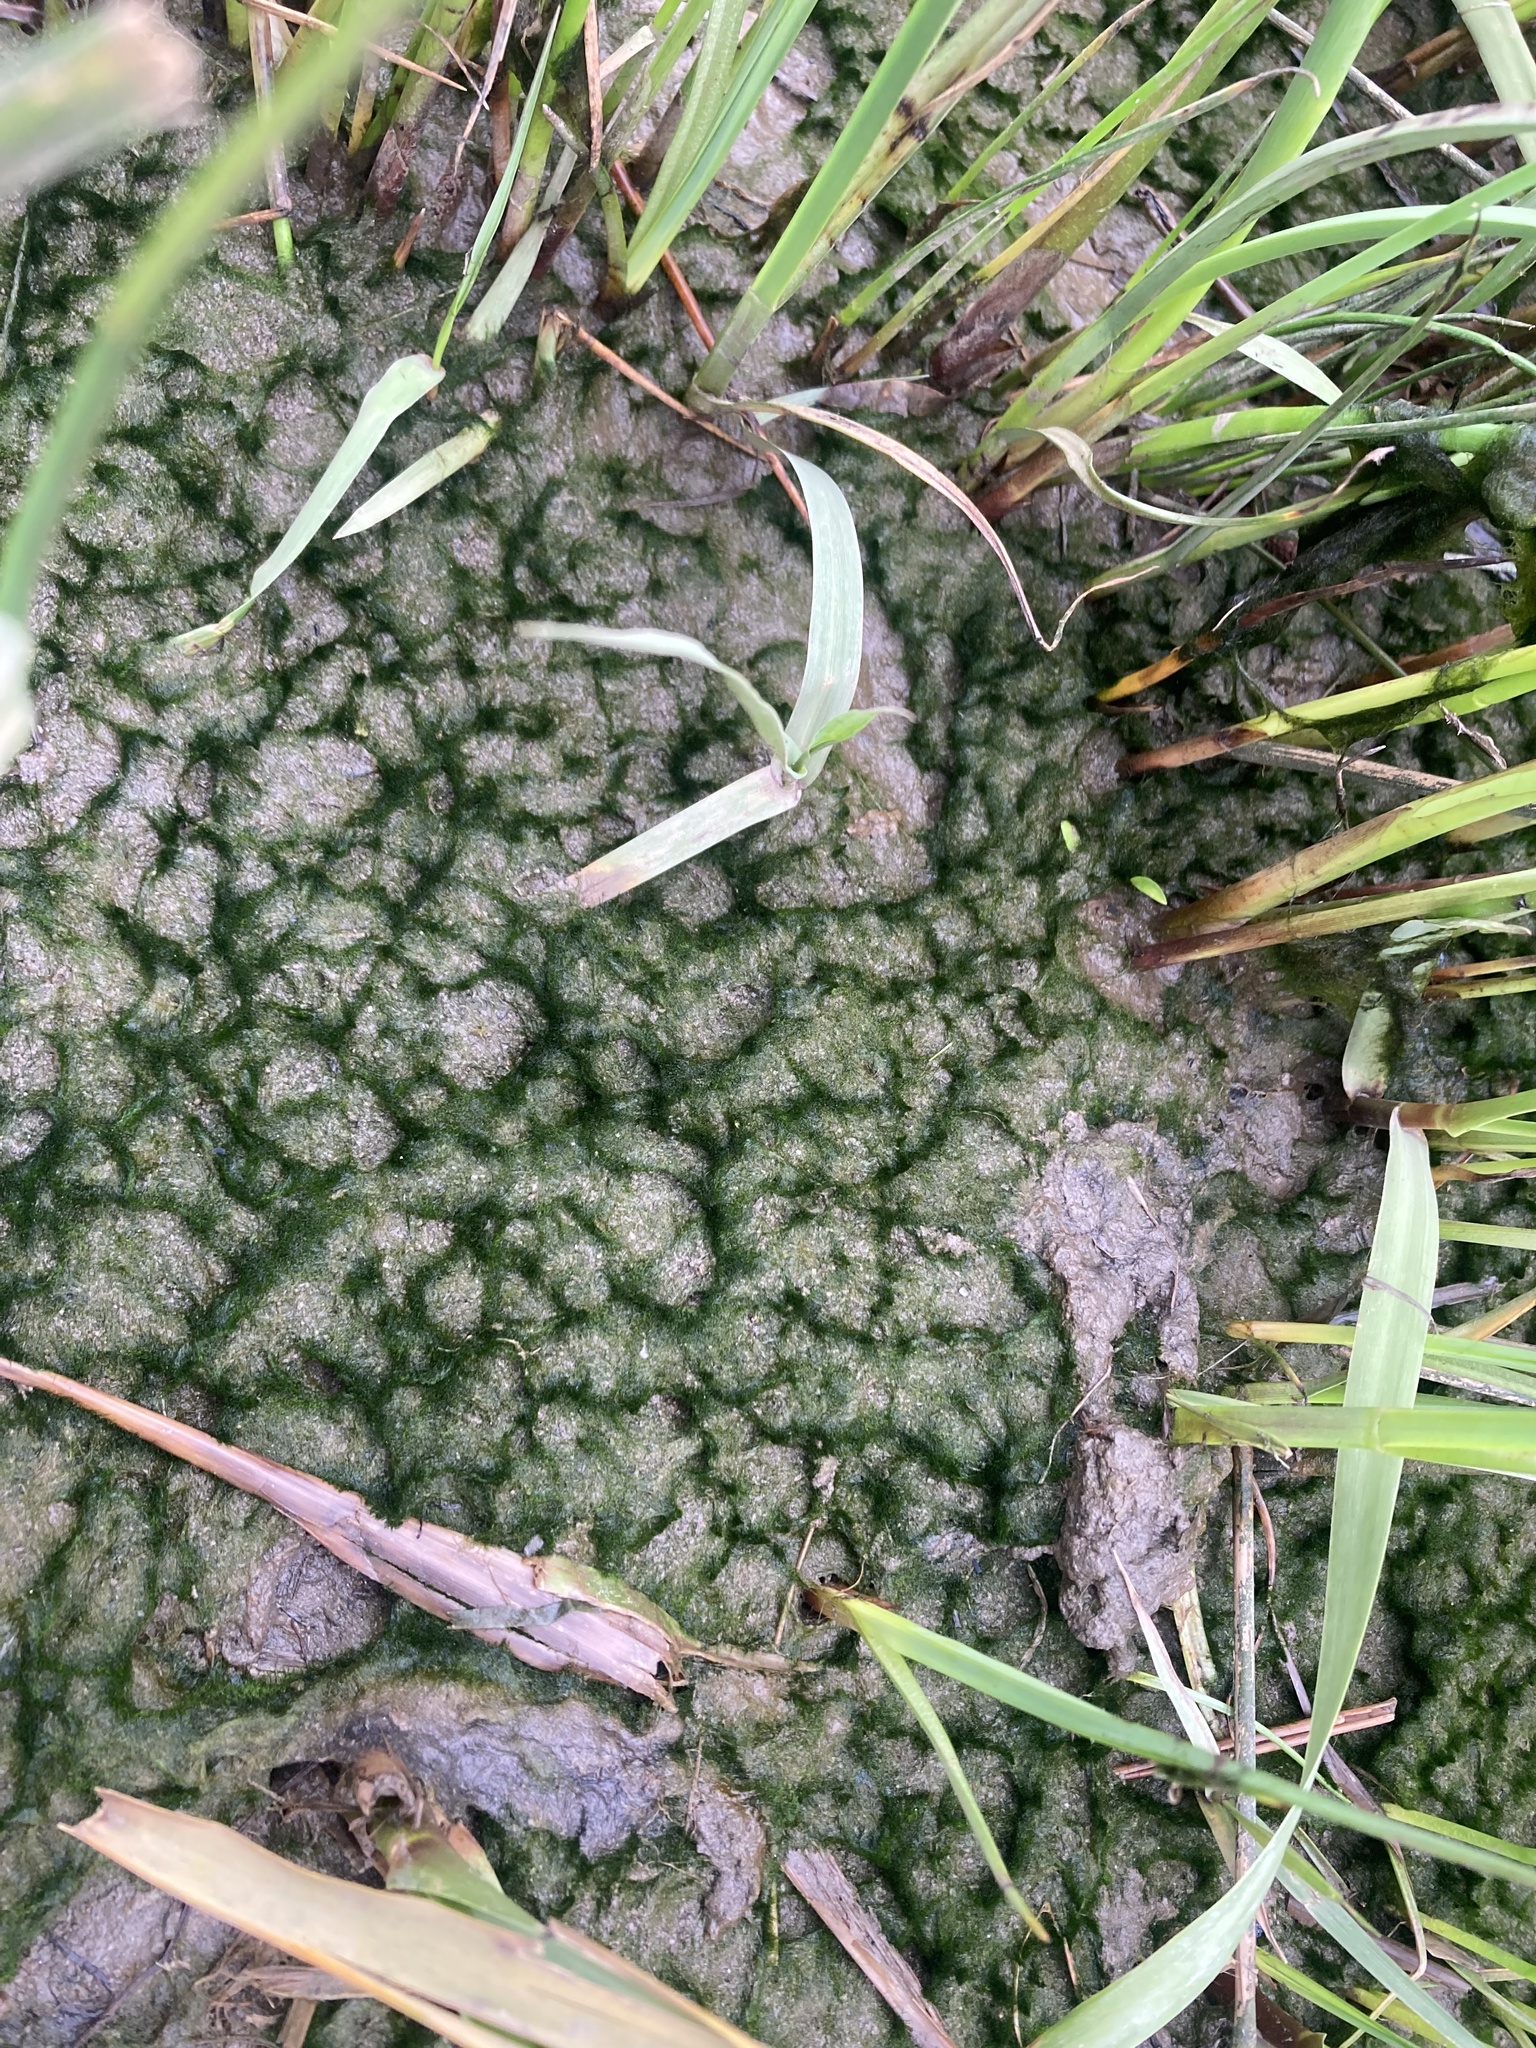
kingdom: Chromista
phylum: Ochrophyta
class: Xanthophyceae
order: Vaucheriales
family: Vaucheriaceae
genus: Vaucheria
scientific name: Vaucheria
